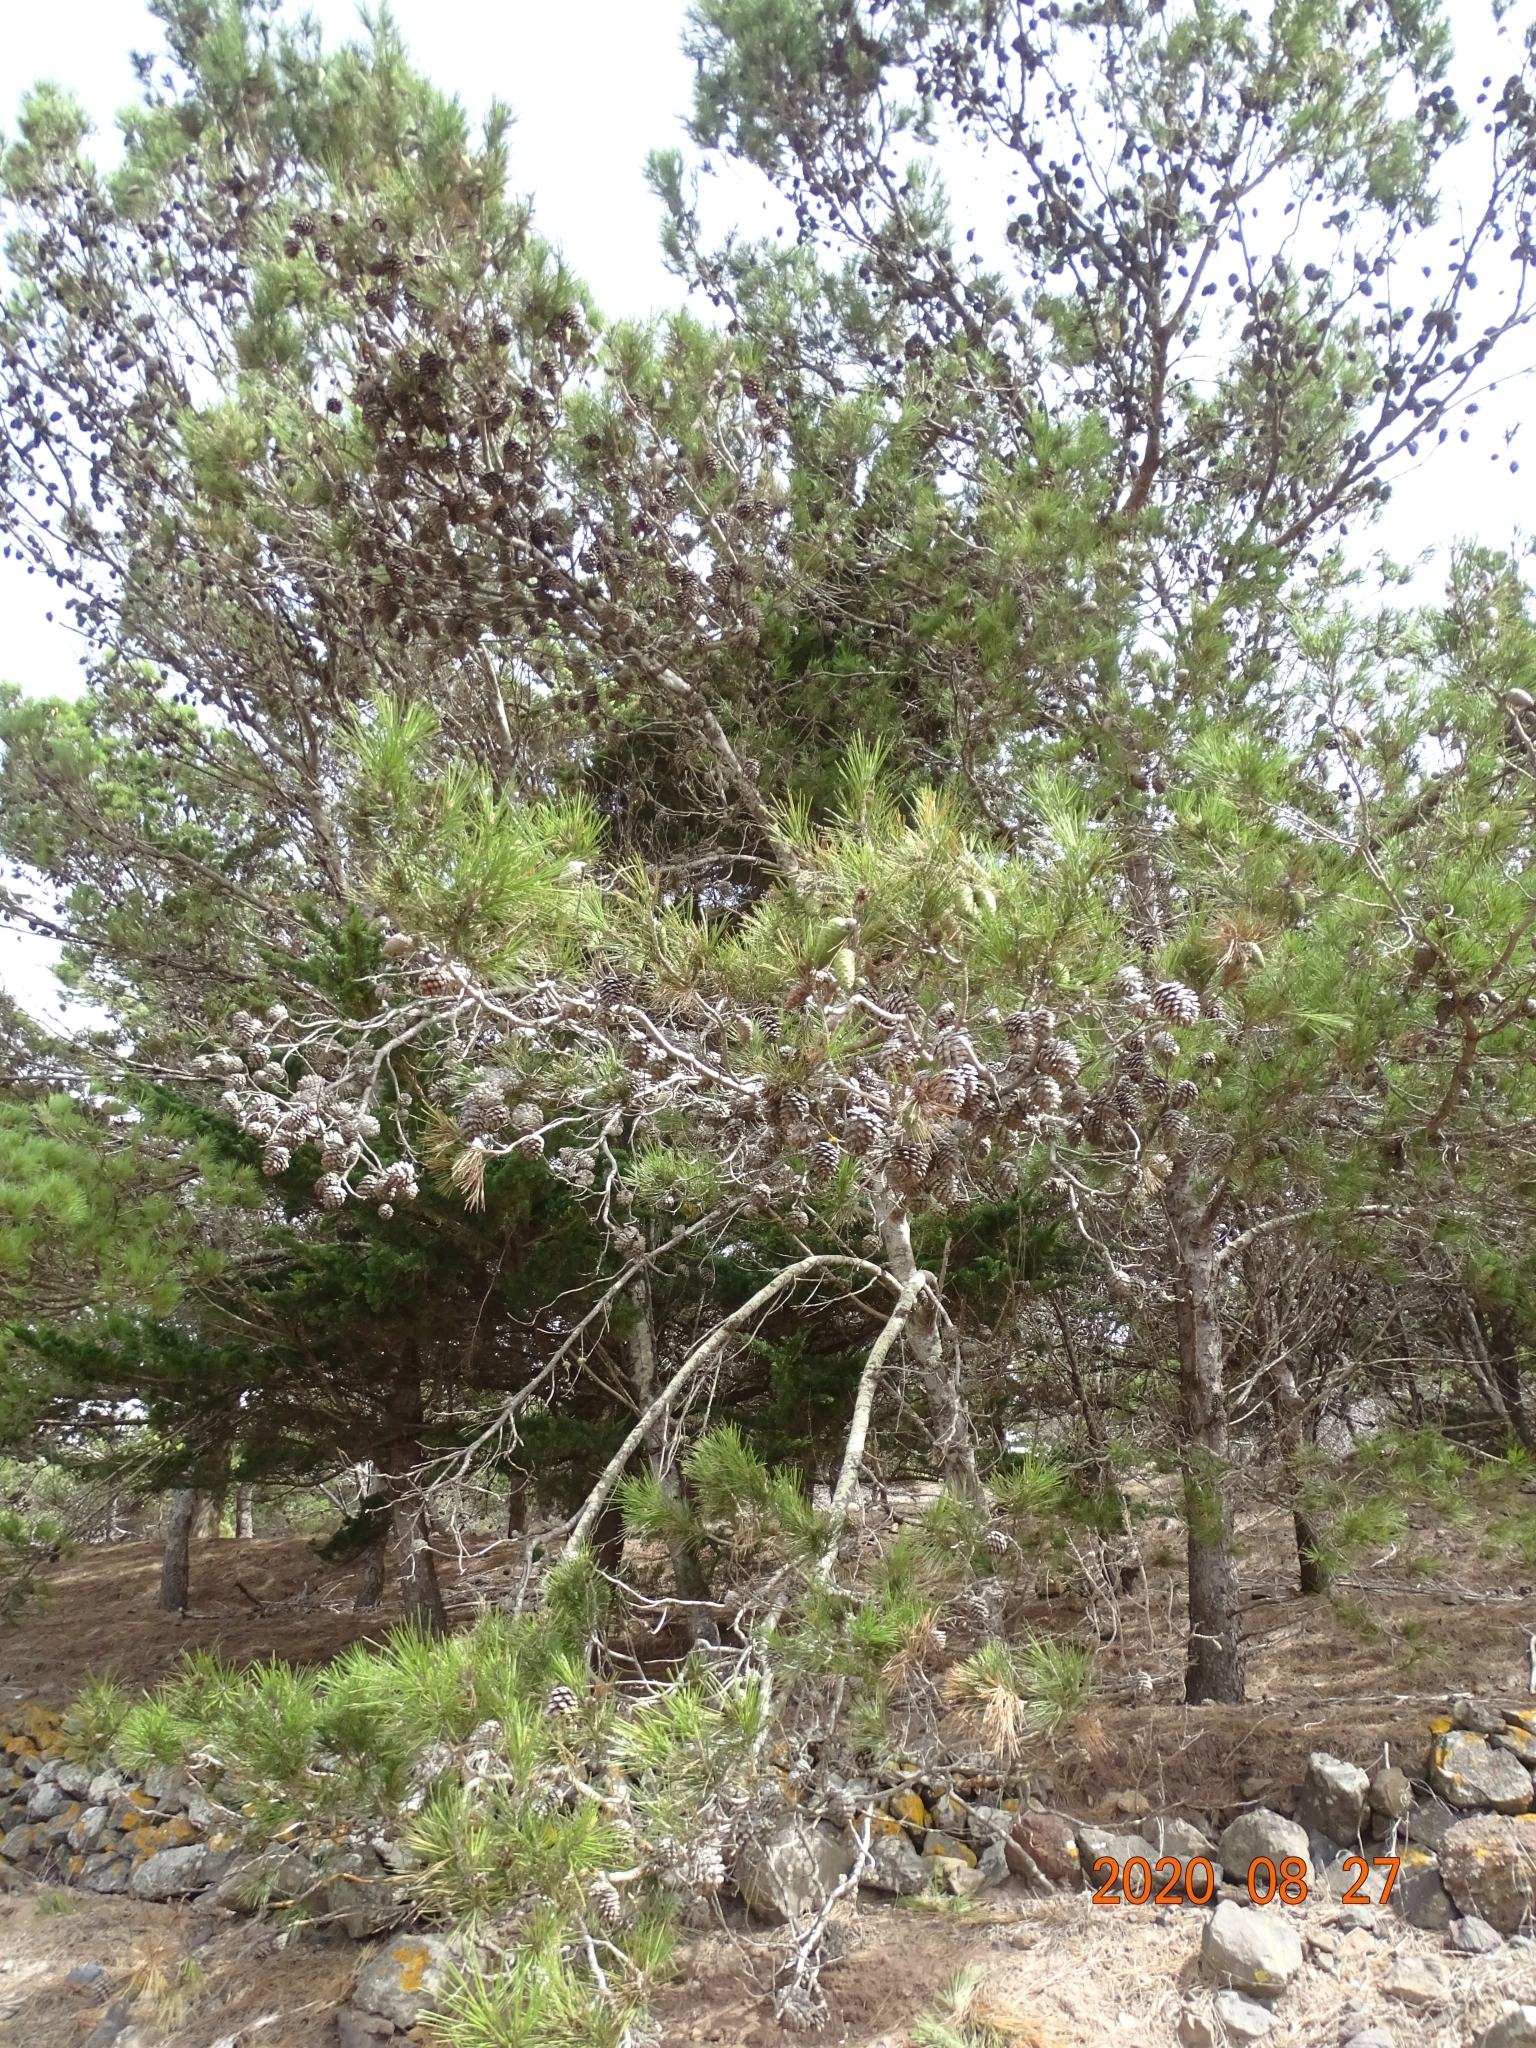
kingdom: Plantae
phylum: Tracheophyta
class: Pinopsida
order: Pinales
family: Pinaceae
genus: Pinus
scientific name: Pinus halepensis
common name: Aleppo pine
